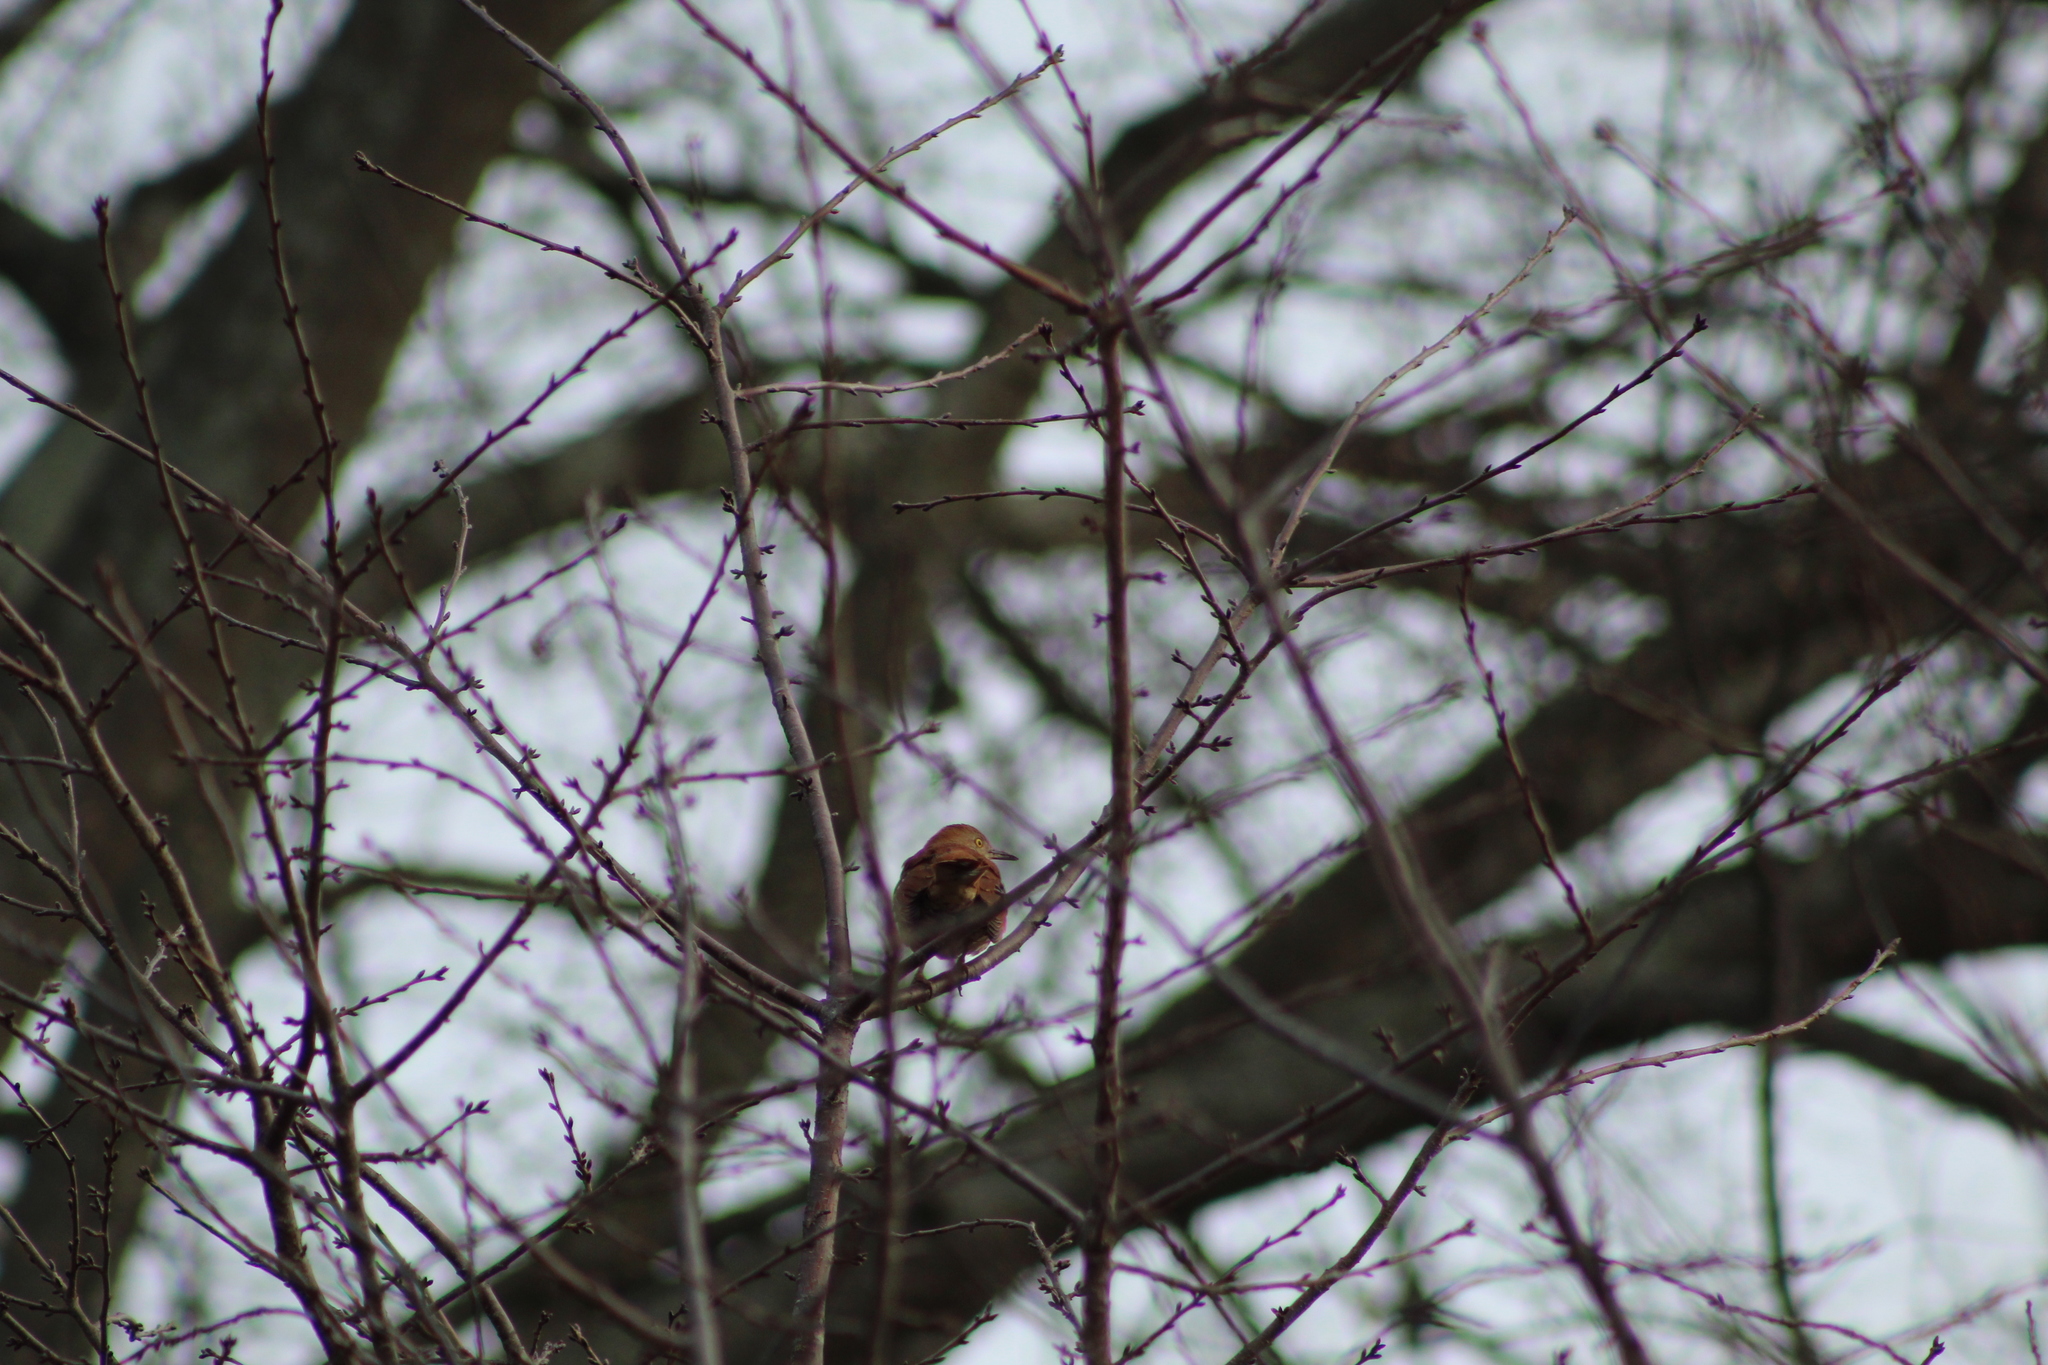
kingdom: Animalia
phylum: Chordata
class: Aves
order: Passeriformes
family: Mimidae
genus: Toxostoma
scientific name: Toxostoma rufum
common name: Brown thrasher
